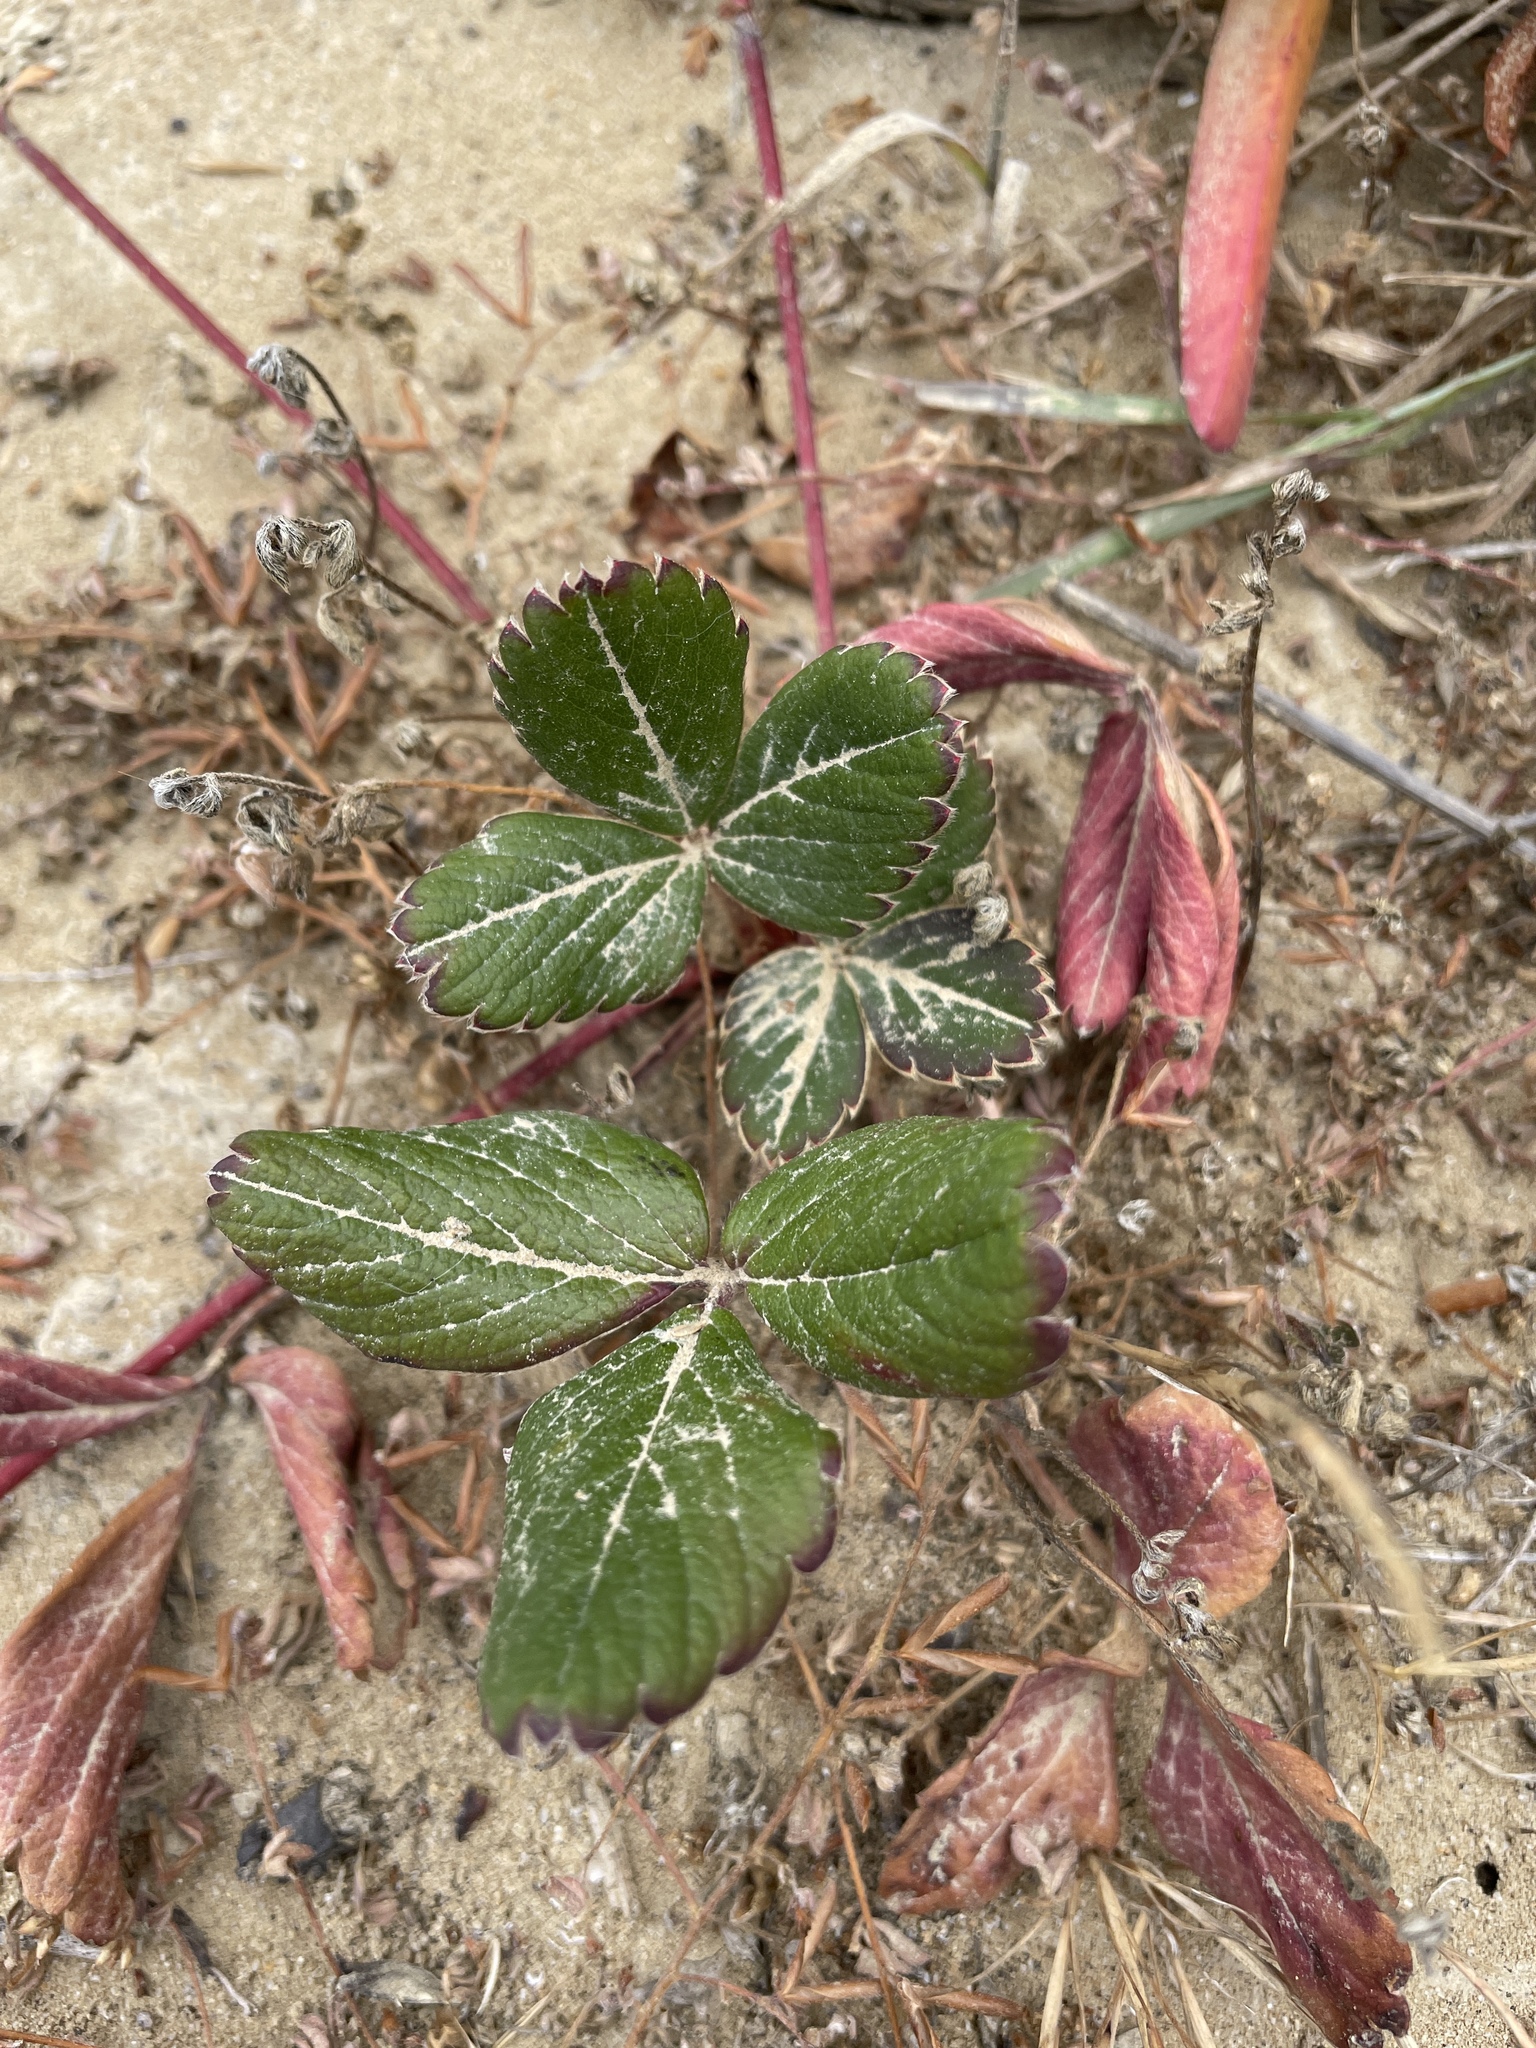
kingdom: Plantae
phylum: Tracheophyta
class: Magnoliopsida
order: Rosales
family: Rosaceae
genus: Fragaria
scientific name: Fragaria chiloensis
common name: Beach strawberry
